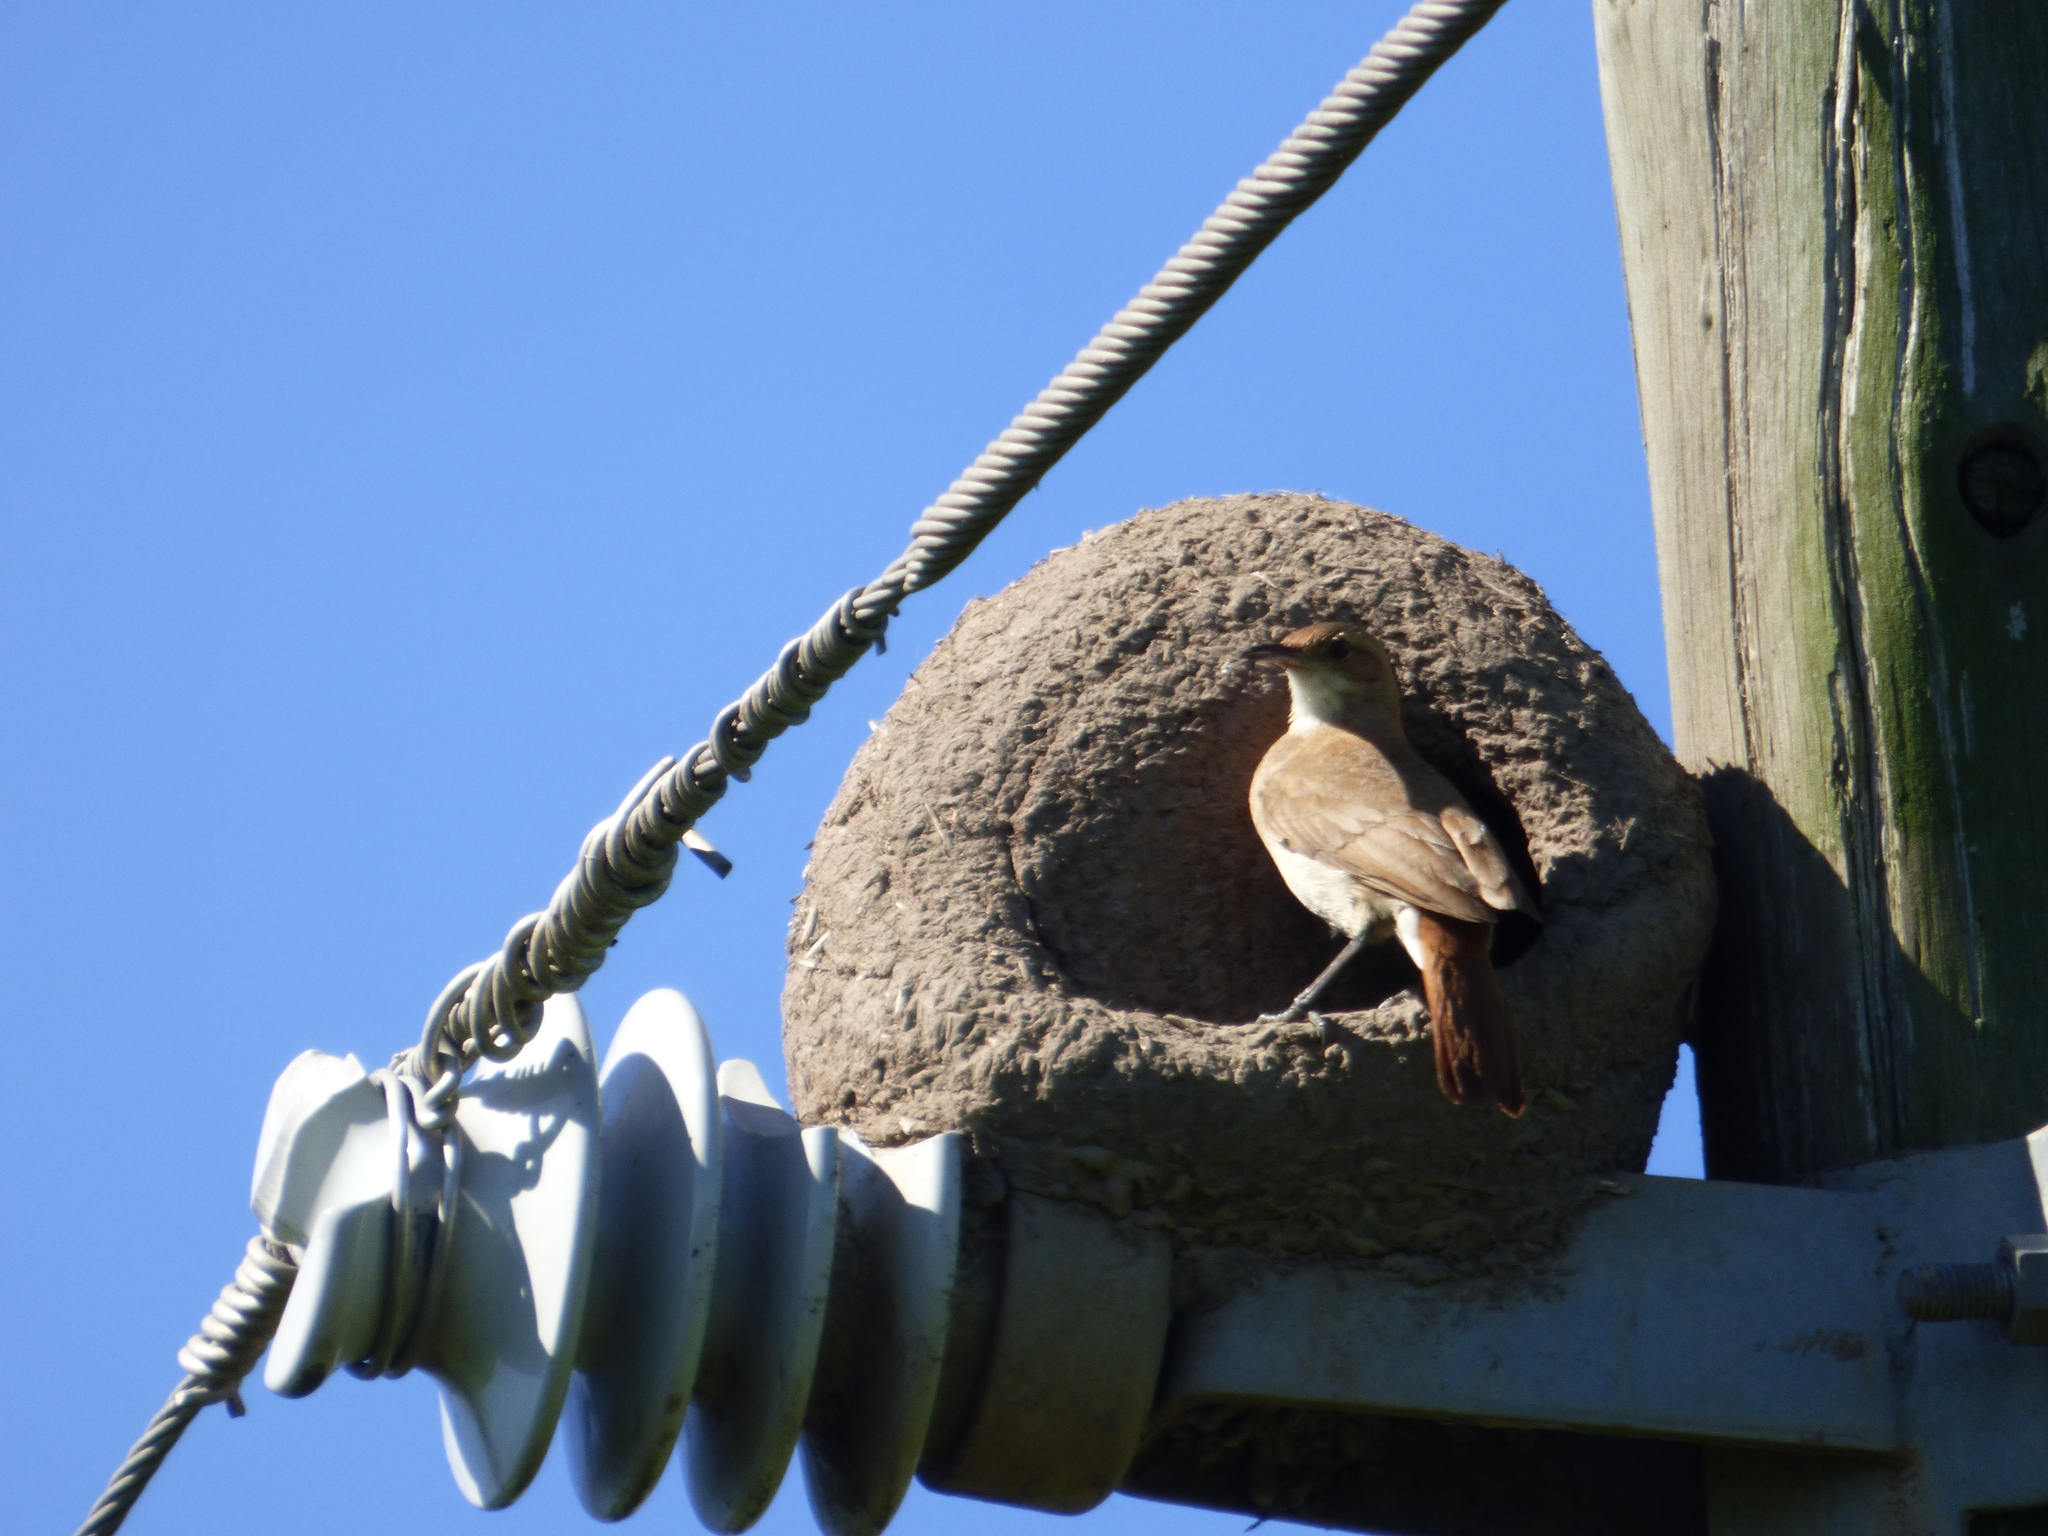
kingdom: Animalia
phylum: Chordata
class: Aves
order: Passeriformes
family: Furnariidae
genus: Furnarius
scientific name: Furnarius rufus
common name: Rufous hornero
